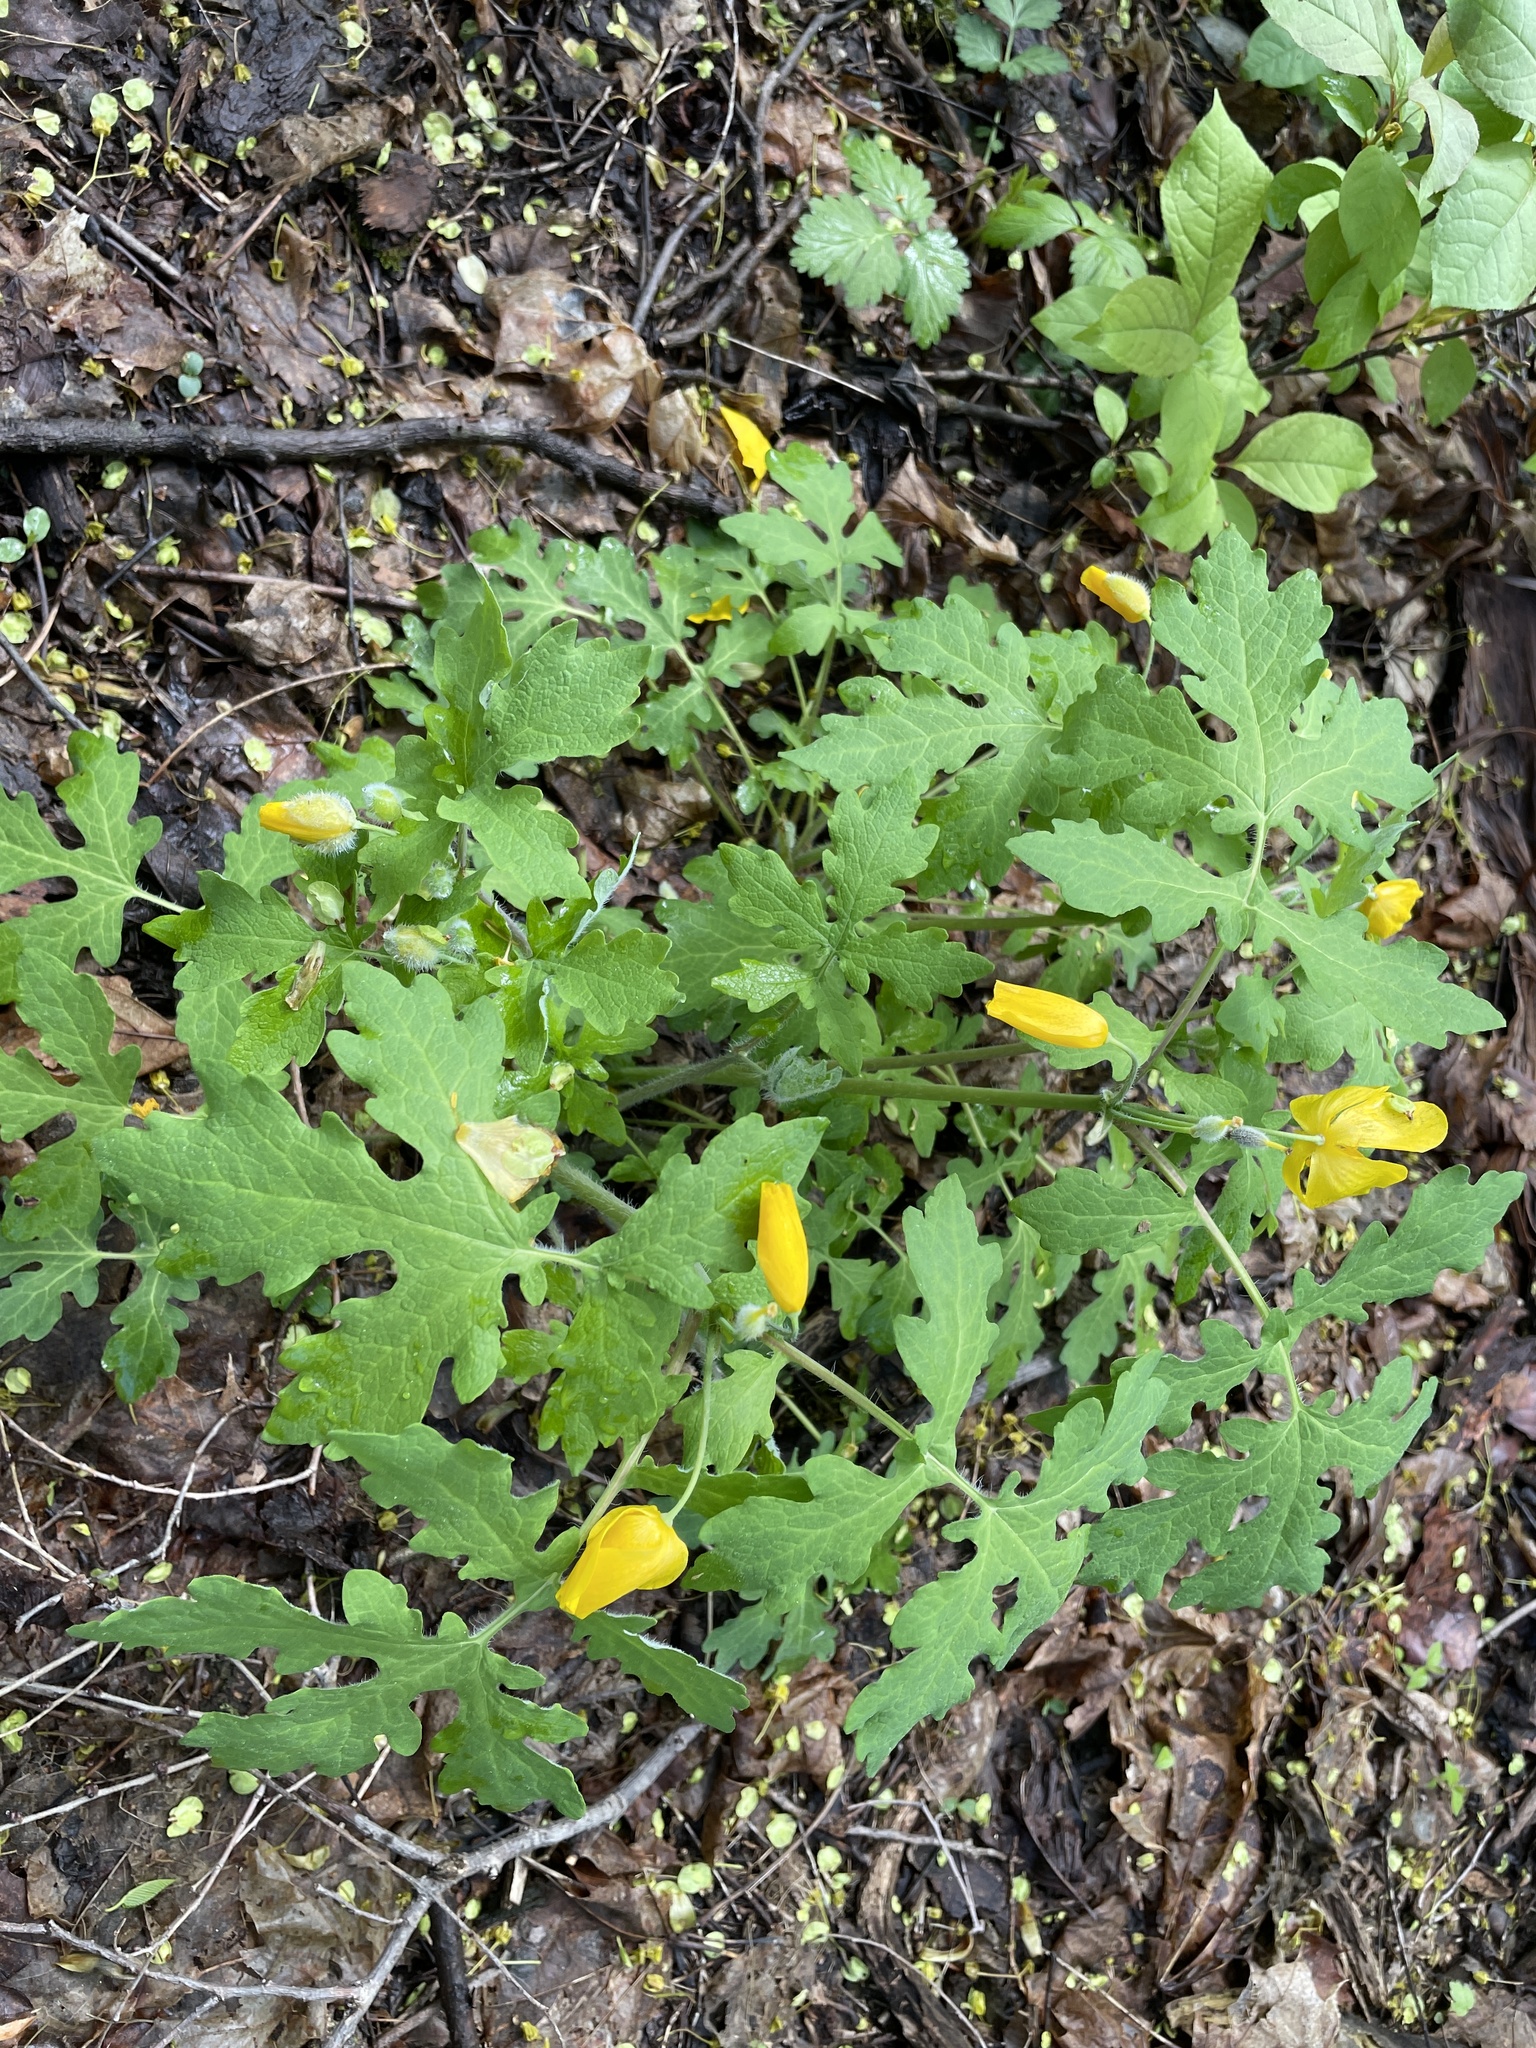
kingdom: Plantae
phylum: Tracheophyta
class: Magnoliopsida
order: Ranunculales
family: Papaveraceae
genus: Stylophorum
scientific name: Stylophorum diphyllum
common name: Celandine poppy
